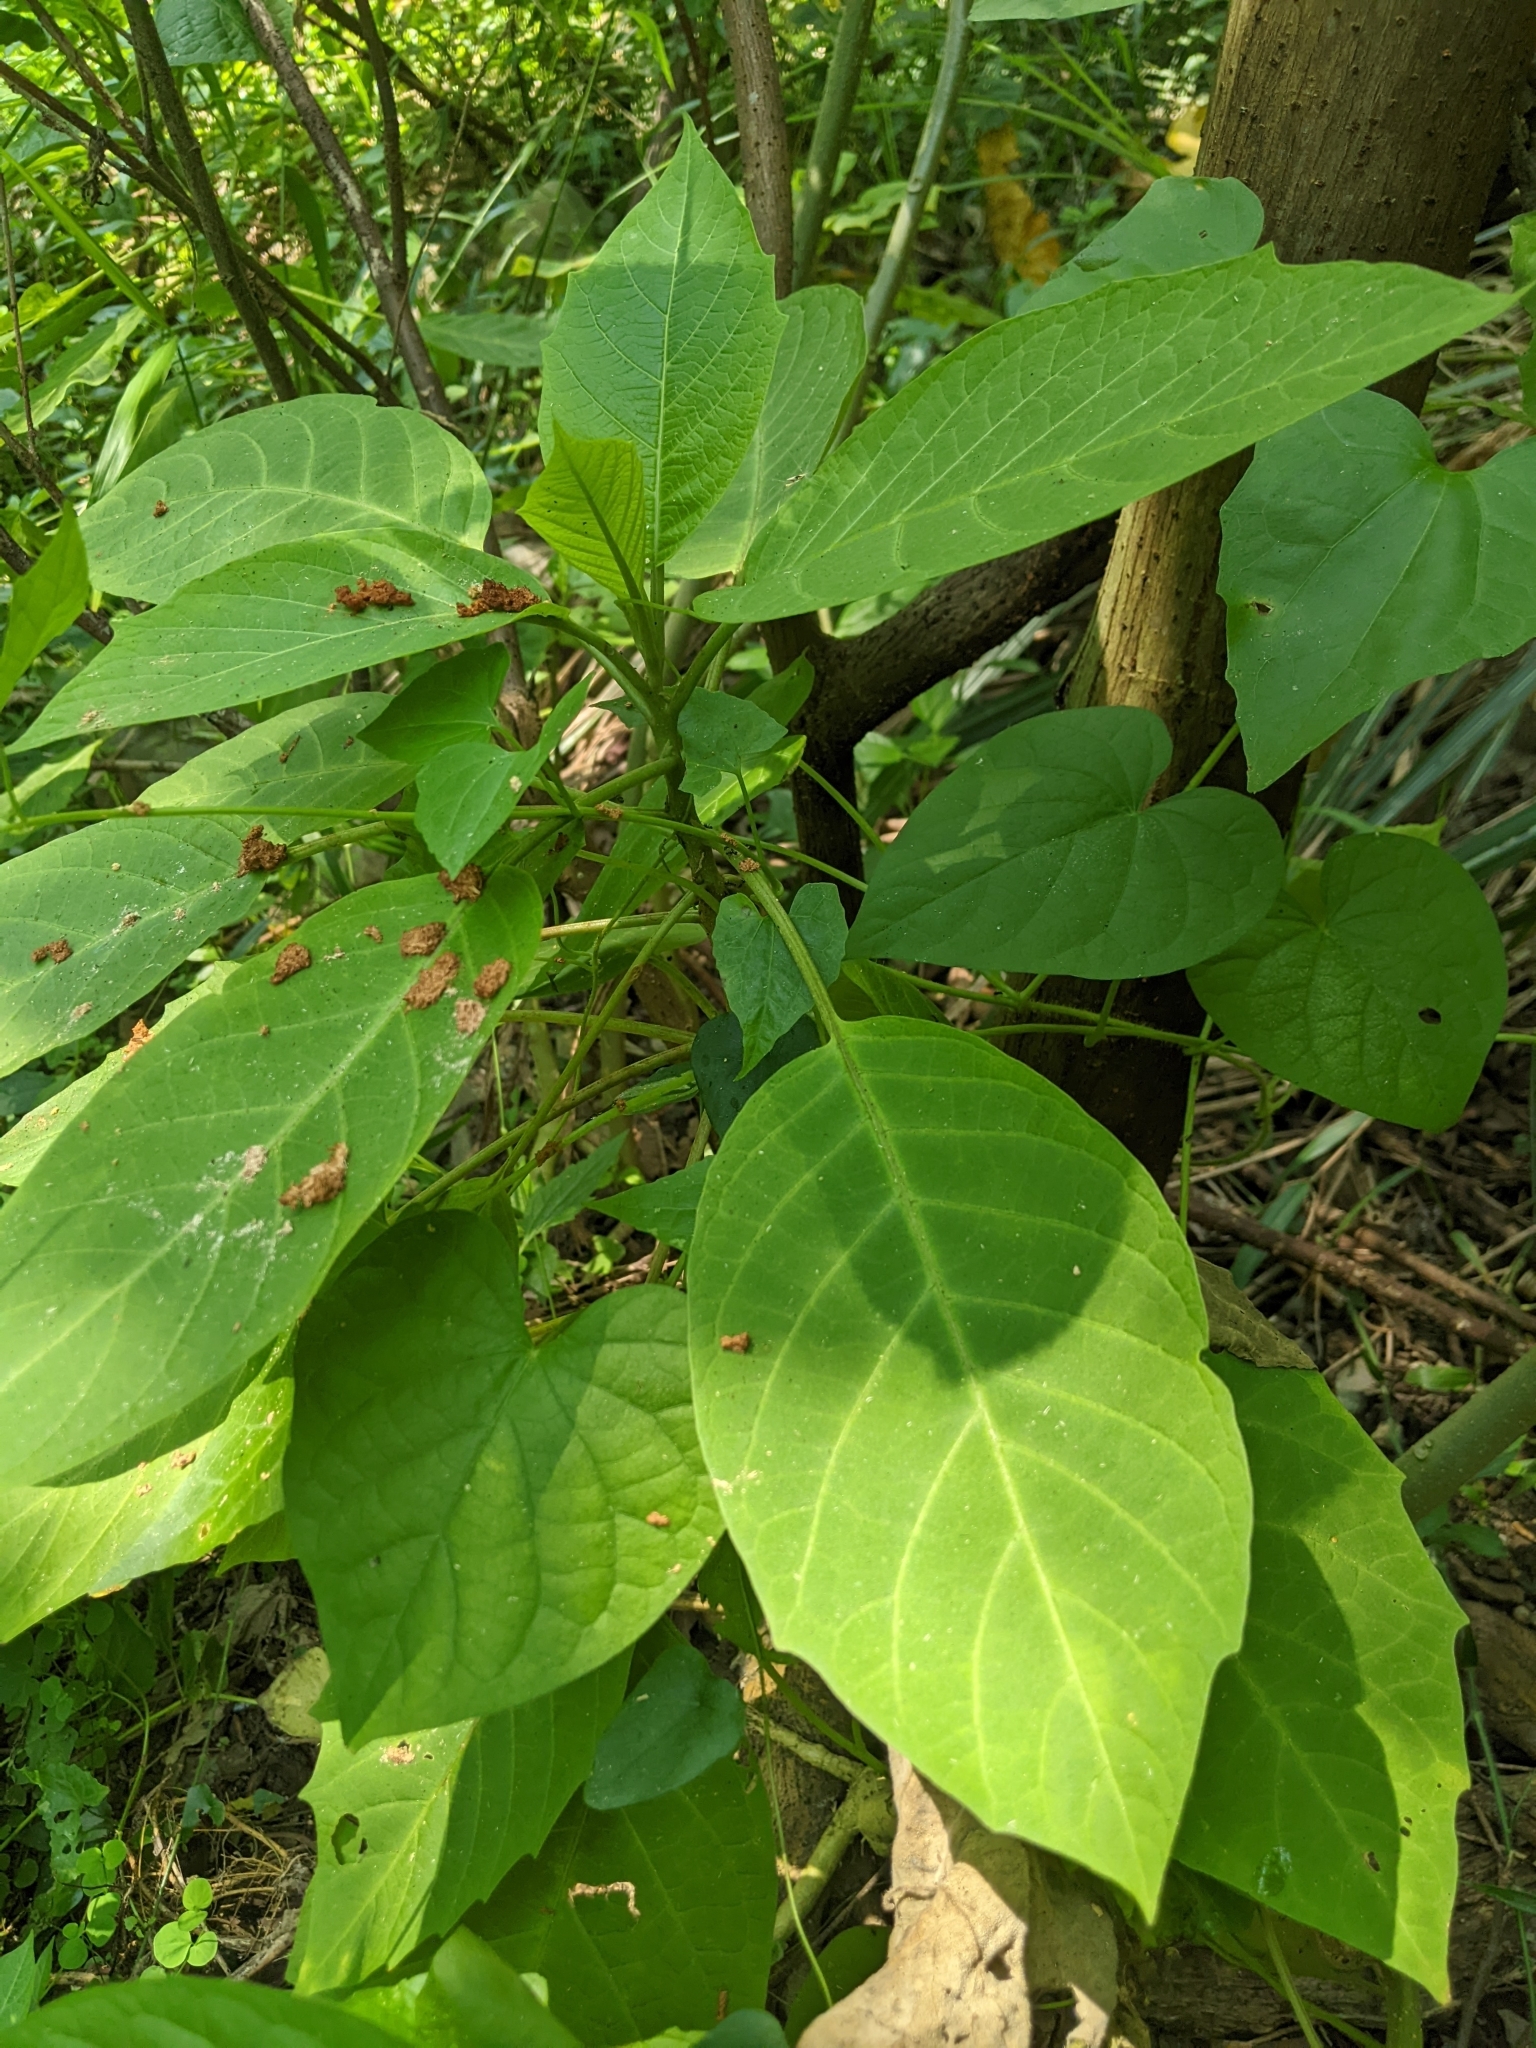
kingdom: Plantae
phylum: Tracheophyta
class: Magnoliopsida
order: Solanales
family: Solanaceae
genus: Brugmansia
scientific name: Brugmansia suaveolens
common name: Angel's tears
